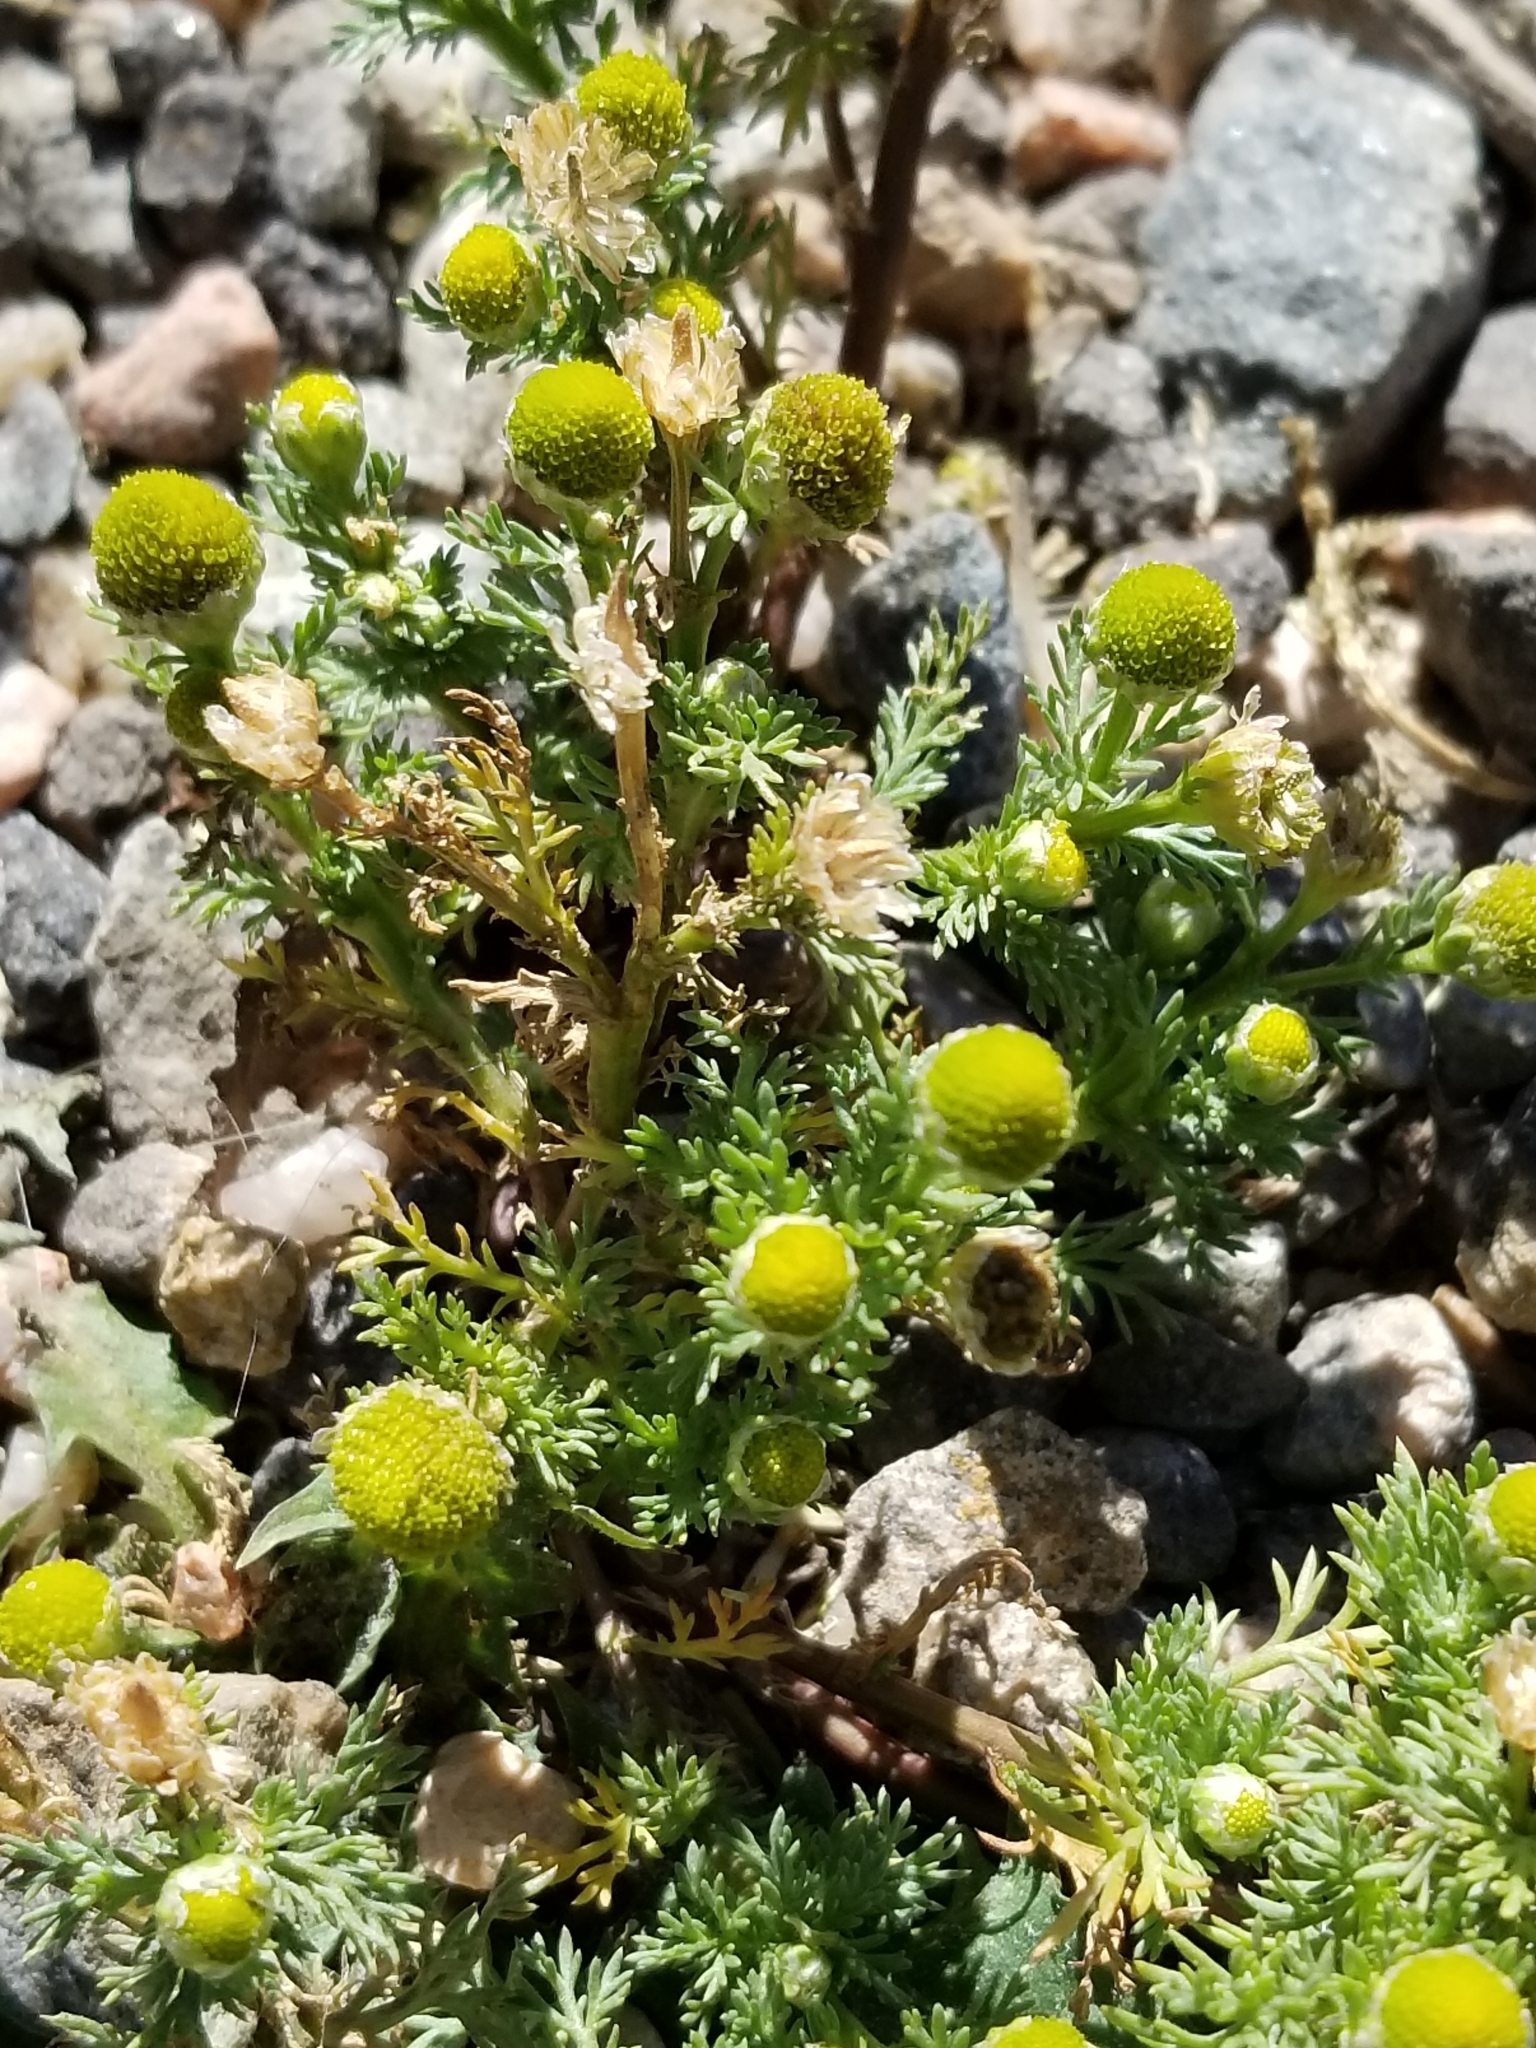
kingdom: Plantae
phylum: Tracheophyta
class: Magnoliopsida
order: Asterales
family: Asteraceae
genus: Matricaria
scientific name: Matricaria discoidea
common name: Disc mayweed
